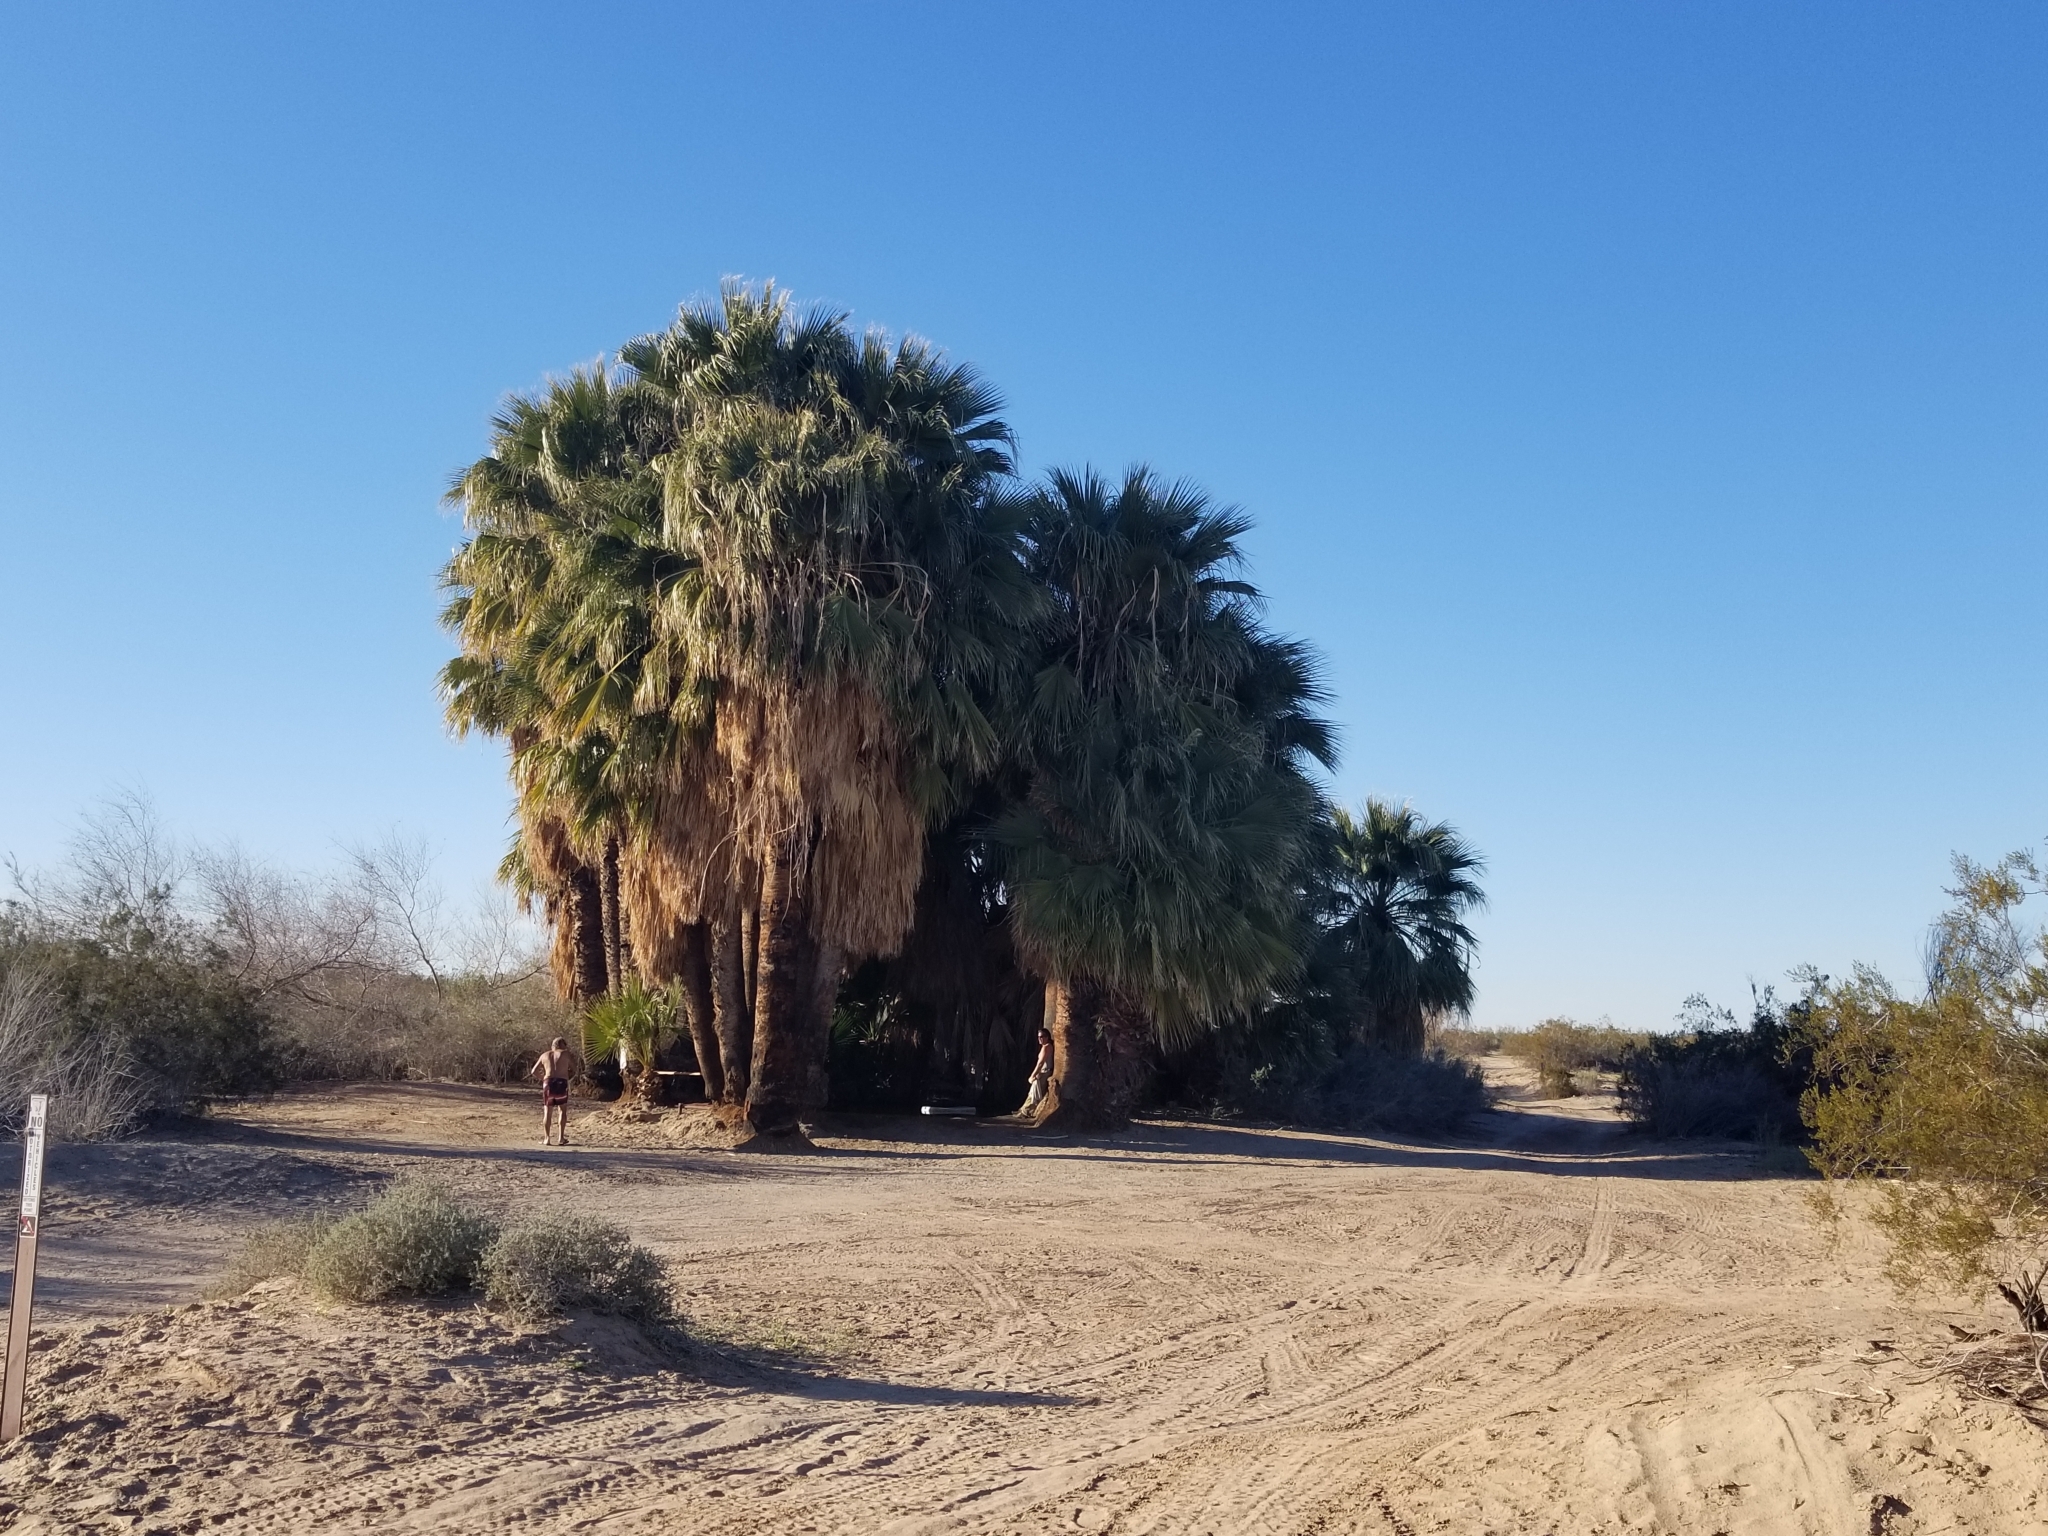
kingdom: Plantae
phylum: Tracheophyta
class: Liliopsida
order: Arecales
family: Arecaceae
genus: Washingtonia
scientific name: Washingtonia filifera
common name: California fan palm
